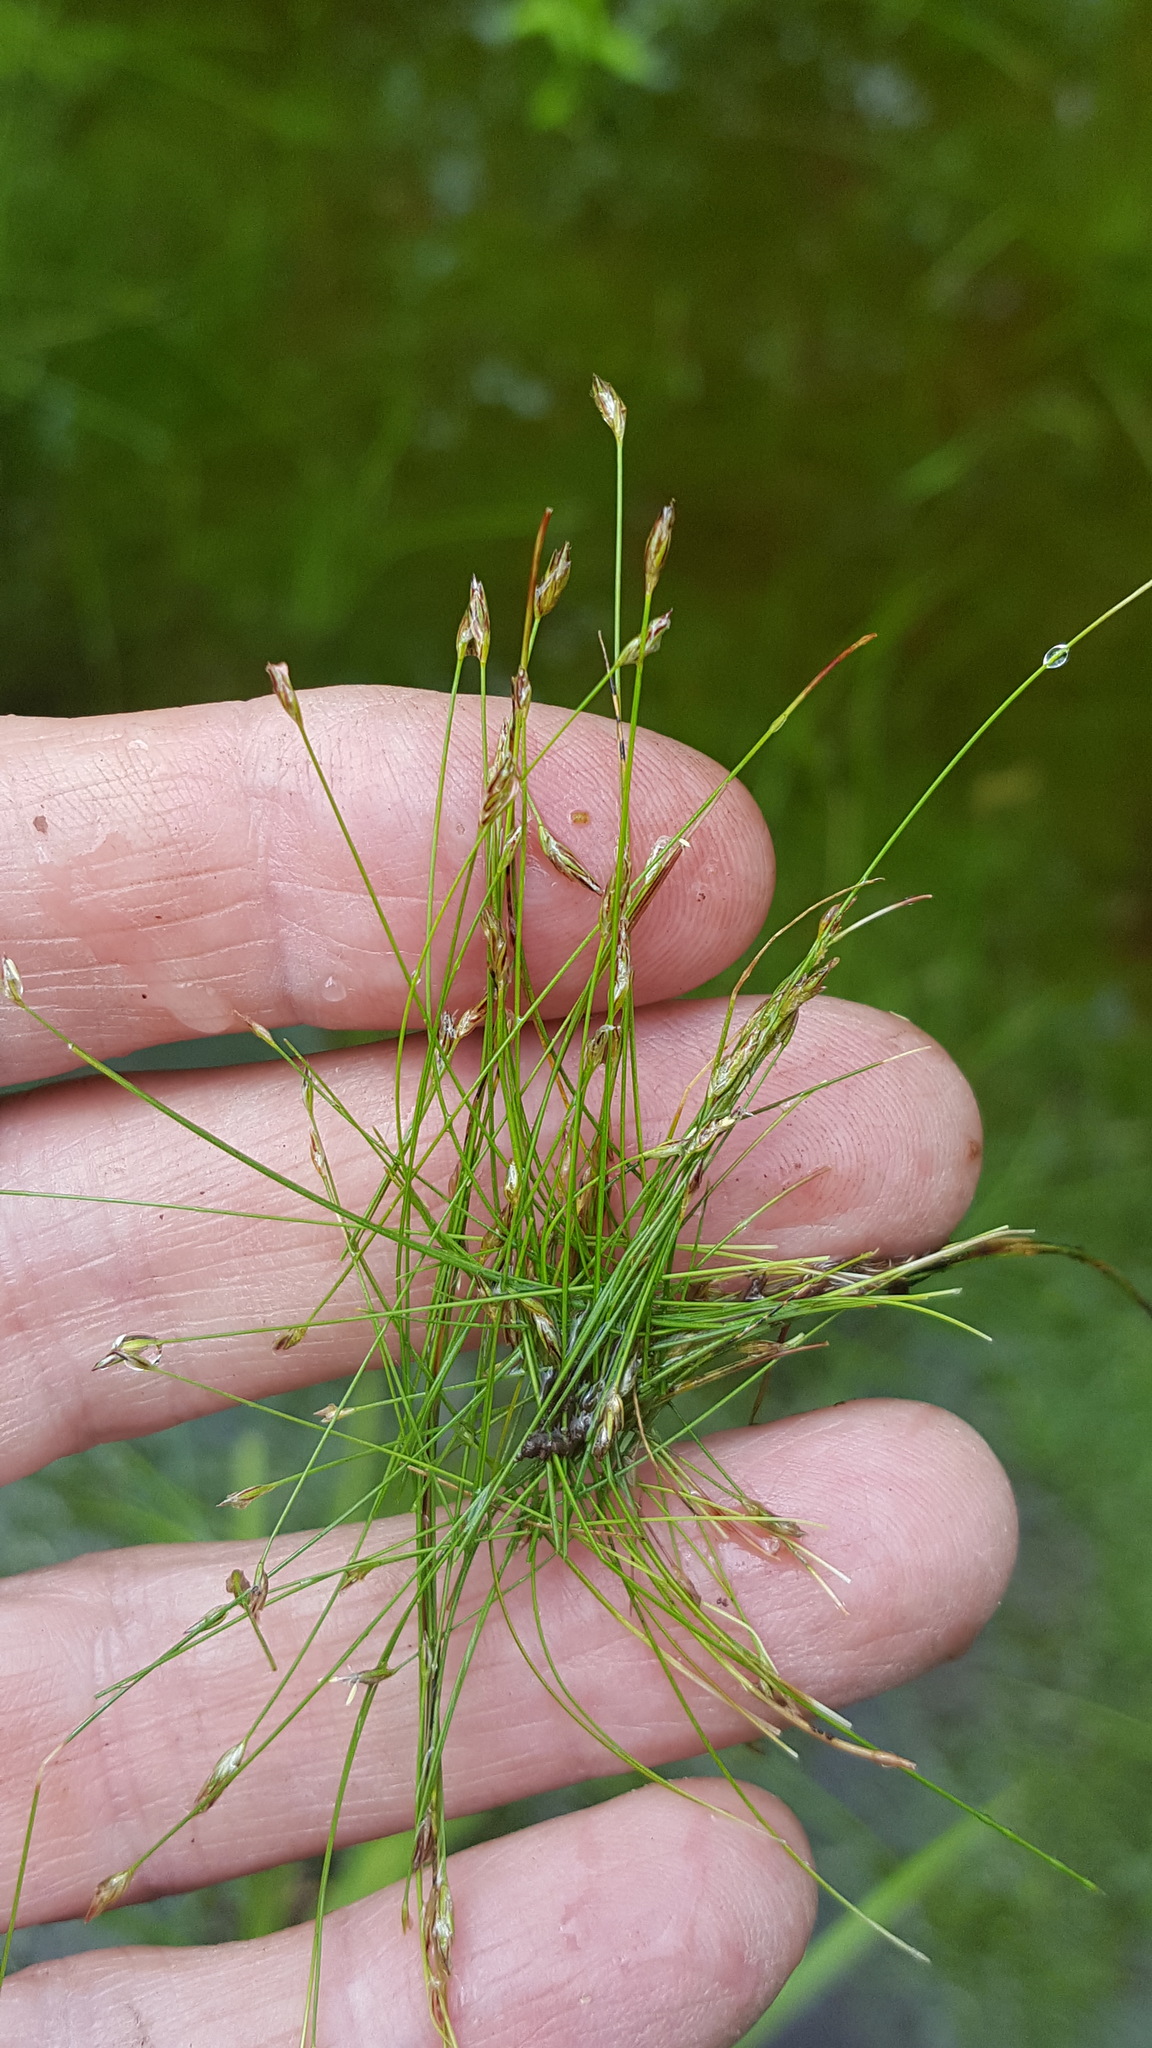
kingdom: Plantae
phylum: Tracheophyta
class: Liliopsida
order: Poales
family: Cyperaceae
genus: Eleocharis
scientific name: Eleocharis acicularis
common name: Needle spike-rush
